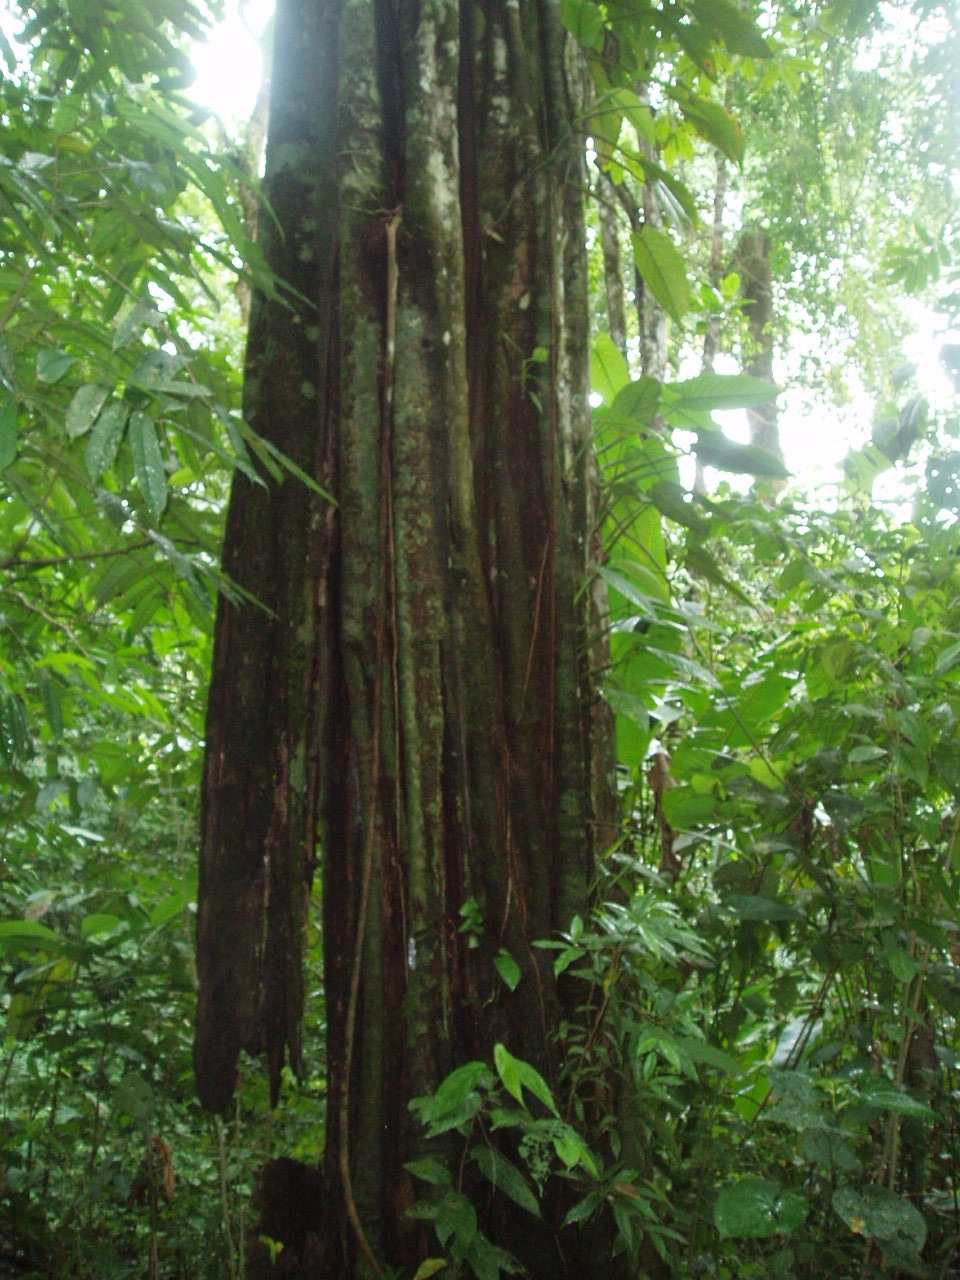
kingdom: Plantae
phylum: Tracheophyta
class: Magnoliopsida
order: Gentianales
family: Apocynaceae
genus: Aspidosperma
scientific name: Aspidosperma myristicifolium
